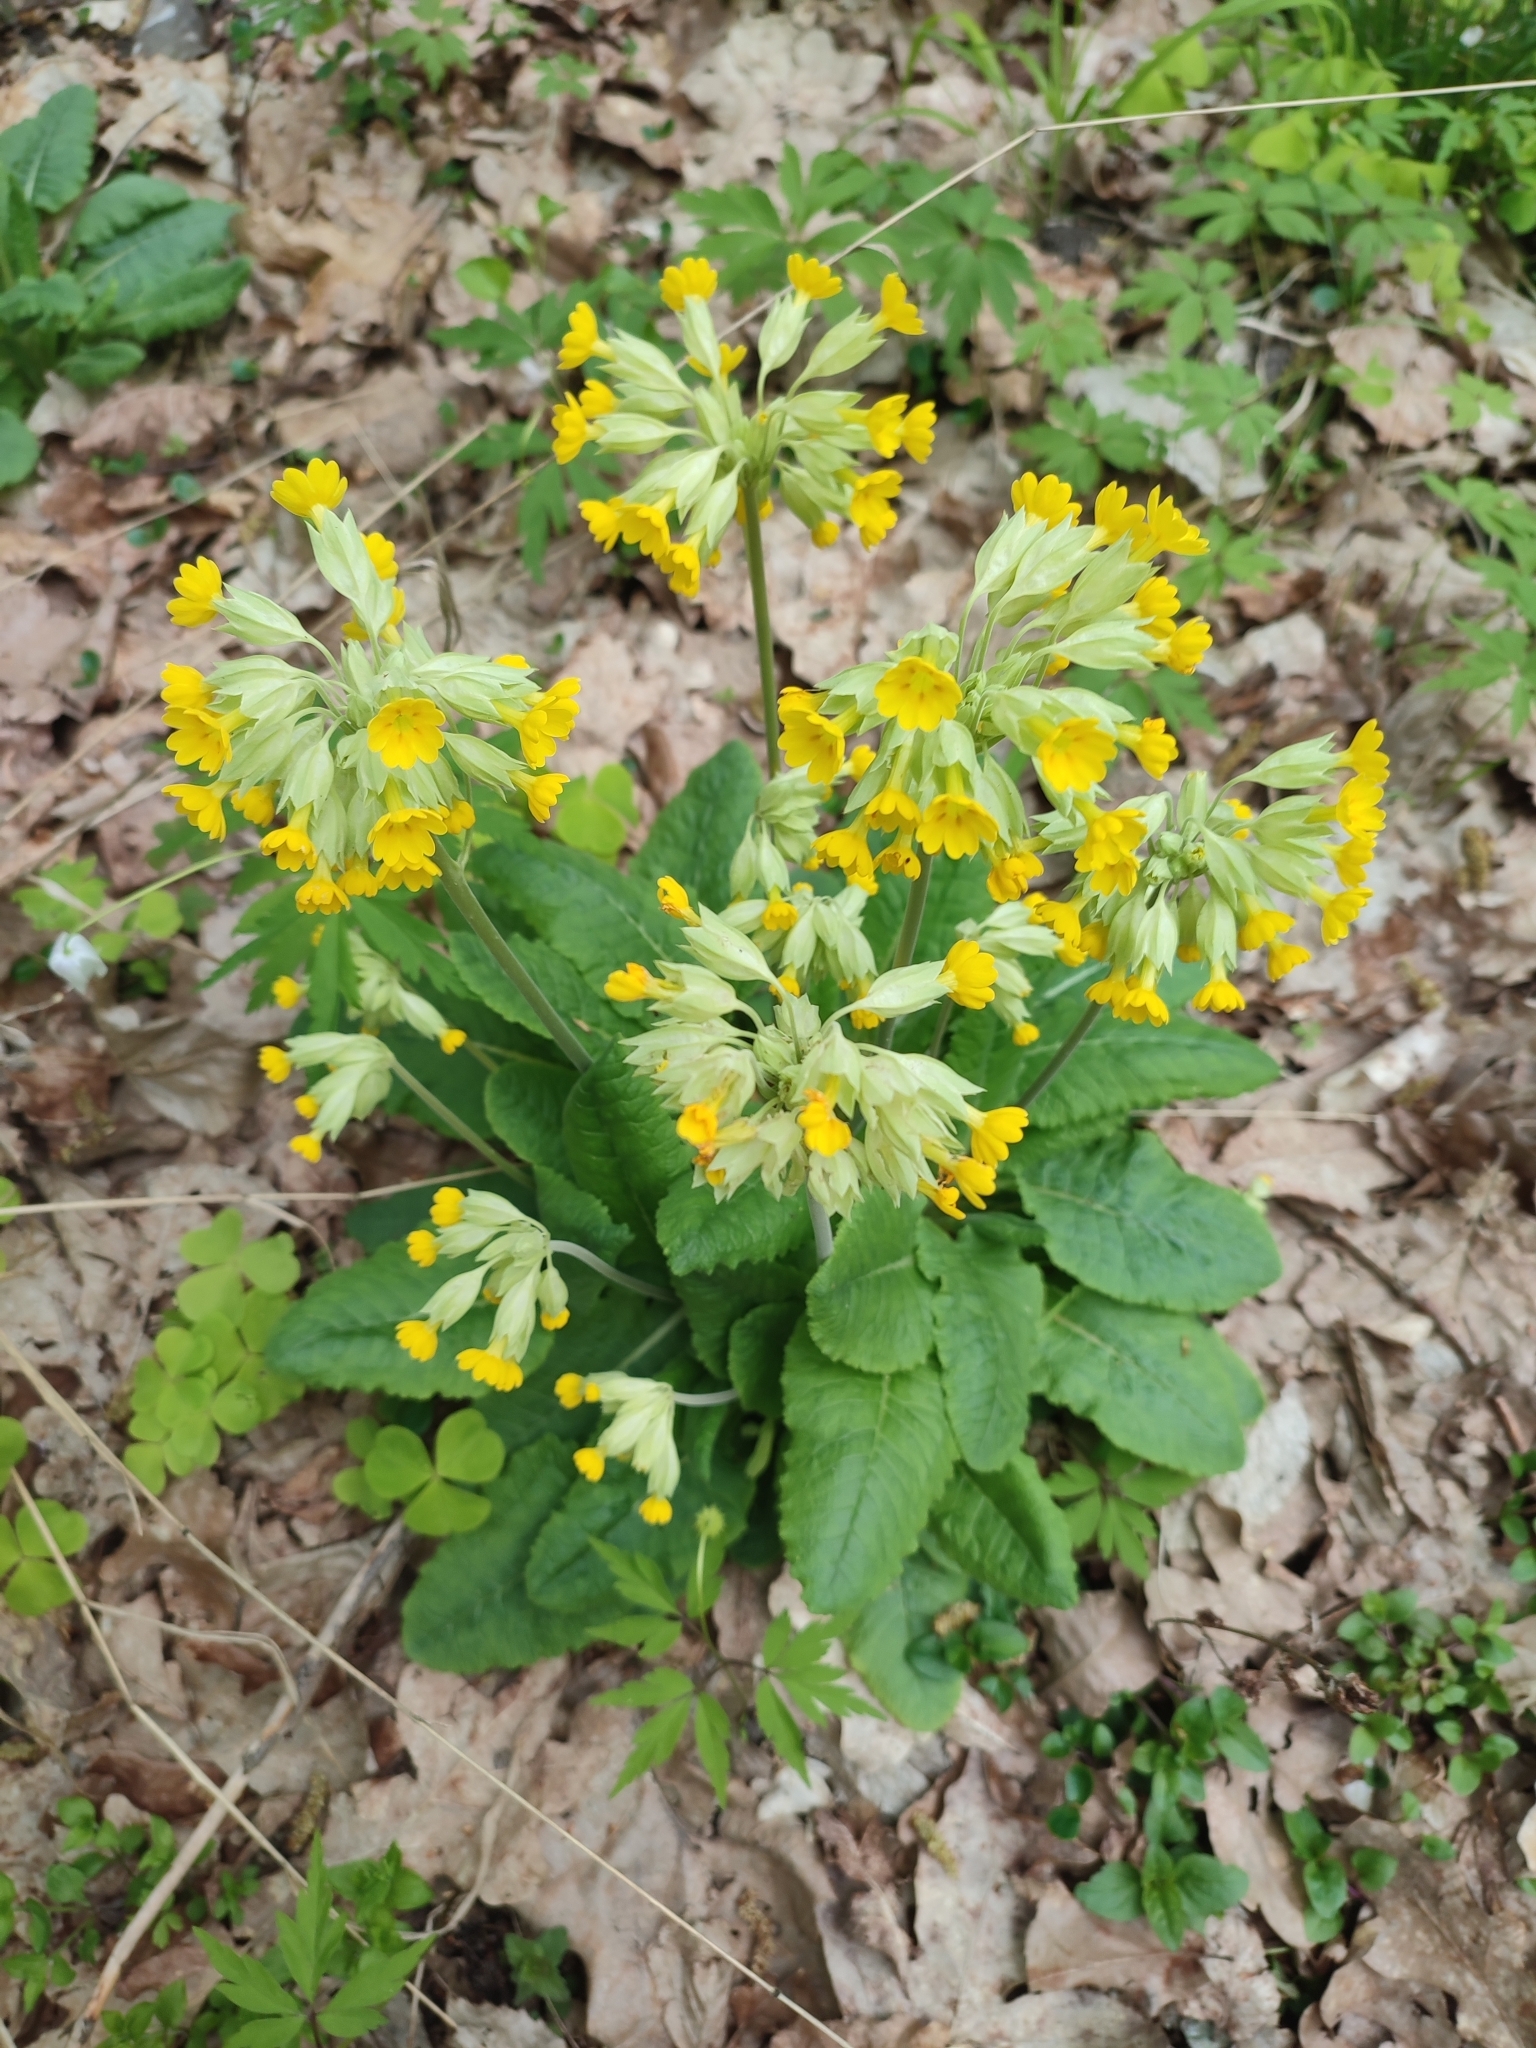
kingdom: Plantae
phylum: Tracheophyta
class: Magnoliopsida
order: Ericales
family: Primulaceae
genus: Primula
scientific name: Primula veris
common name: Cowslip
